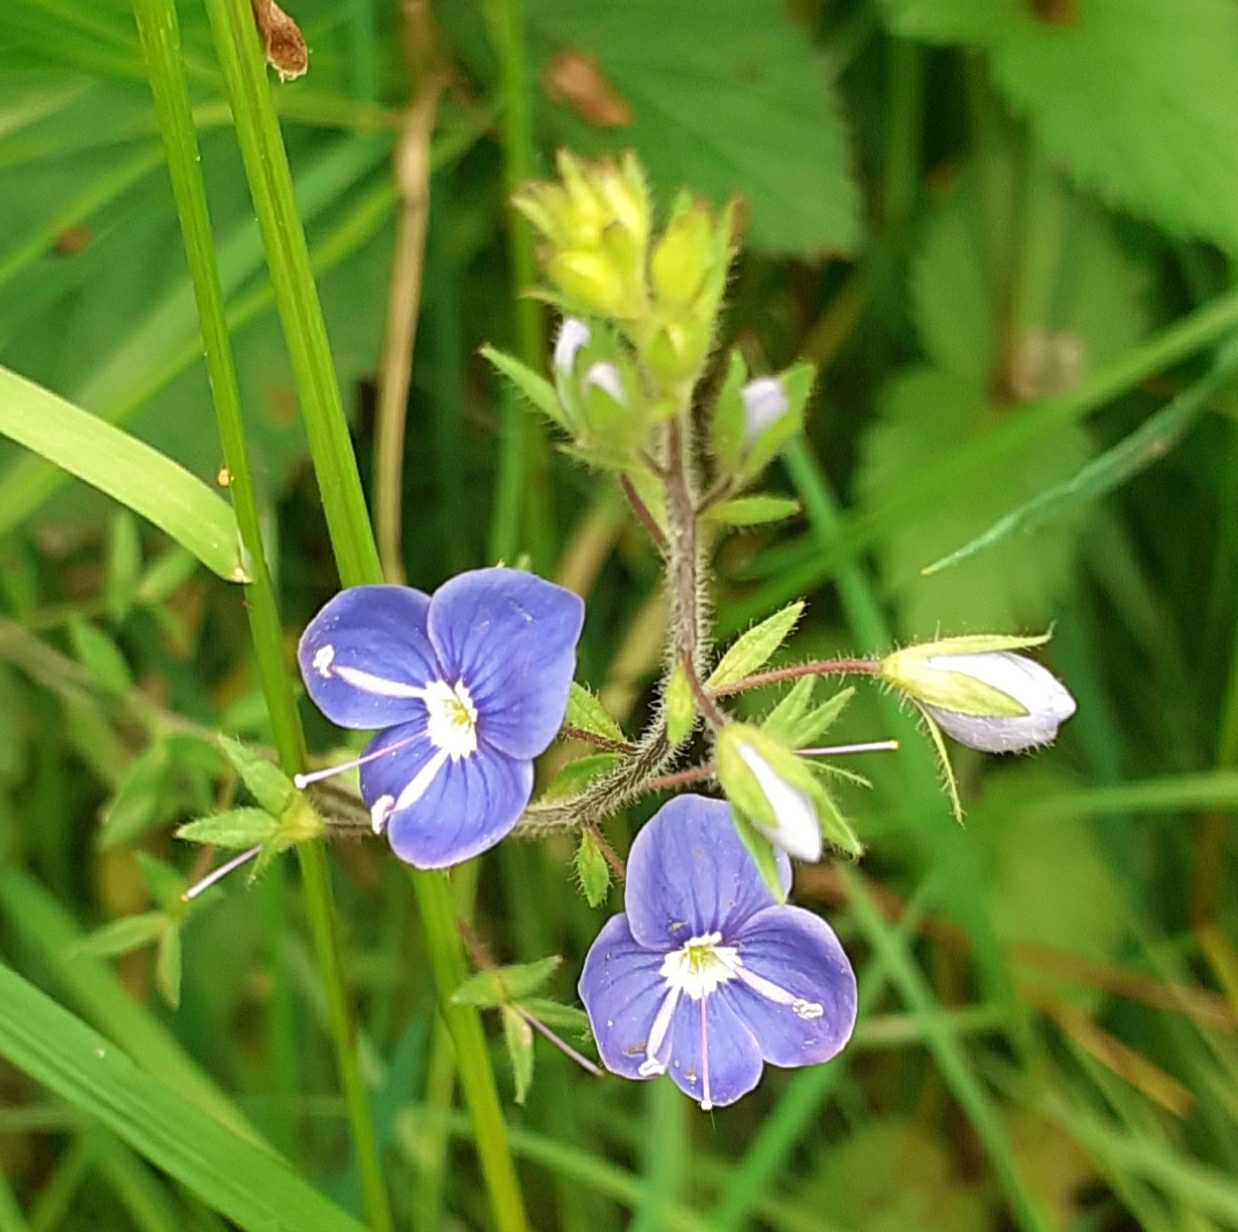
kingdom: Plantae
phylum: Tracheophyta
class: Magnoliopsida
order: Lamiales
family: Plantaginaceae
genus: Veronica
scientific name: Veronica chamaedrys
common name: Germander speedwell
